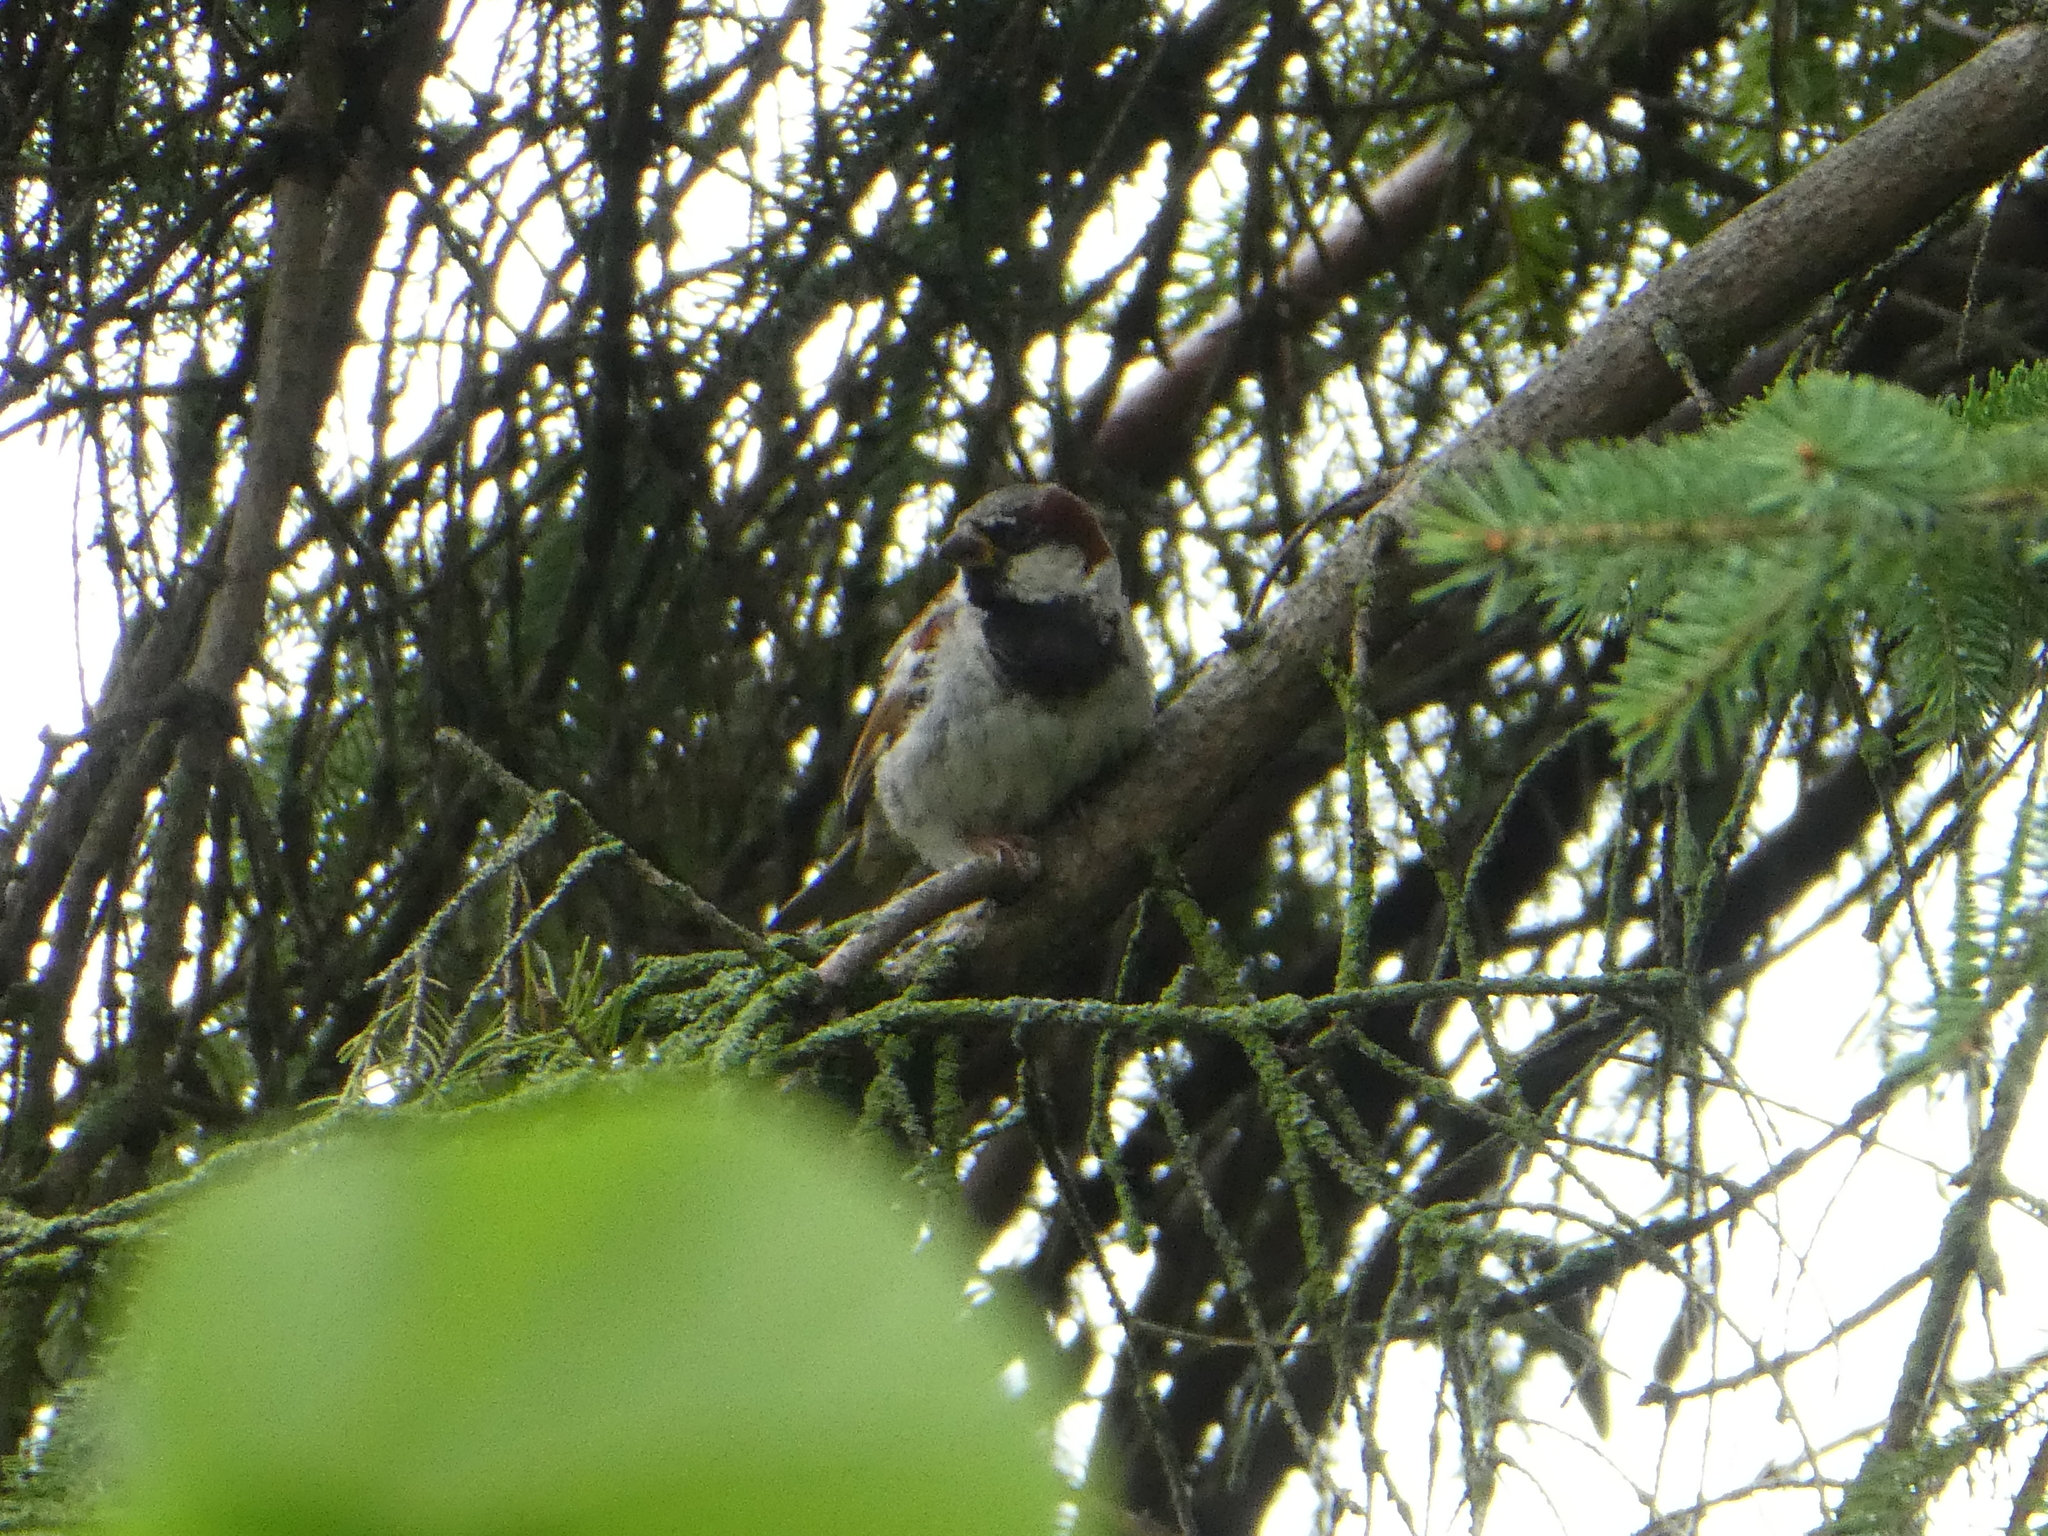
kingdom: Animalia
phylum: Chordata
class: Aves
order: Passeriformes
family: Passeridae
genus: Passer
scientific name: Passer domesticus
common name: House sparrow
